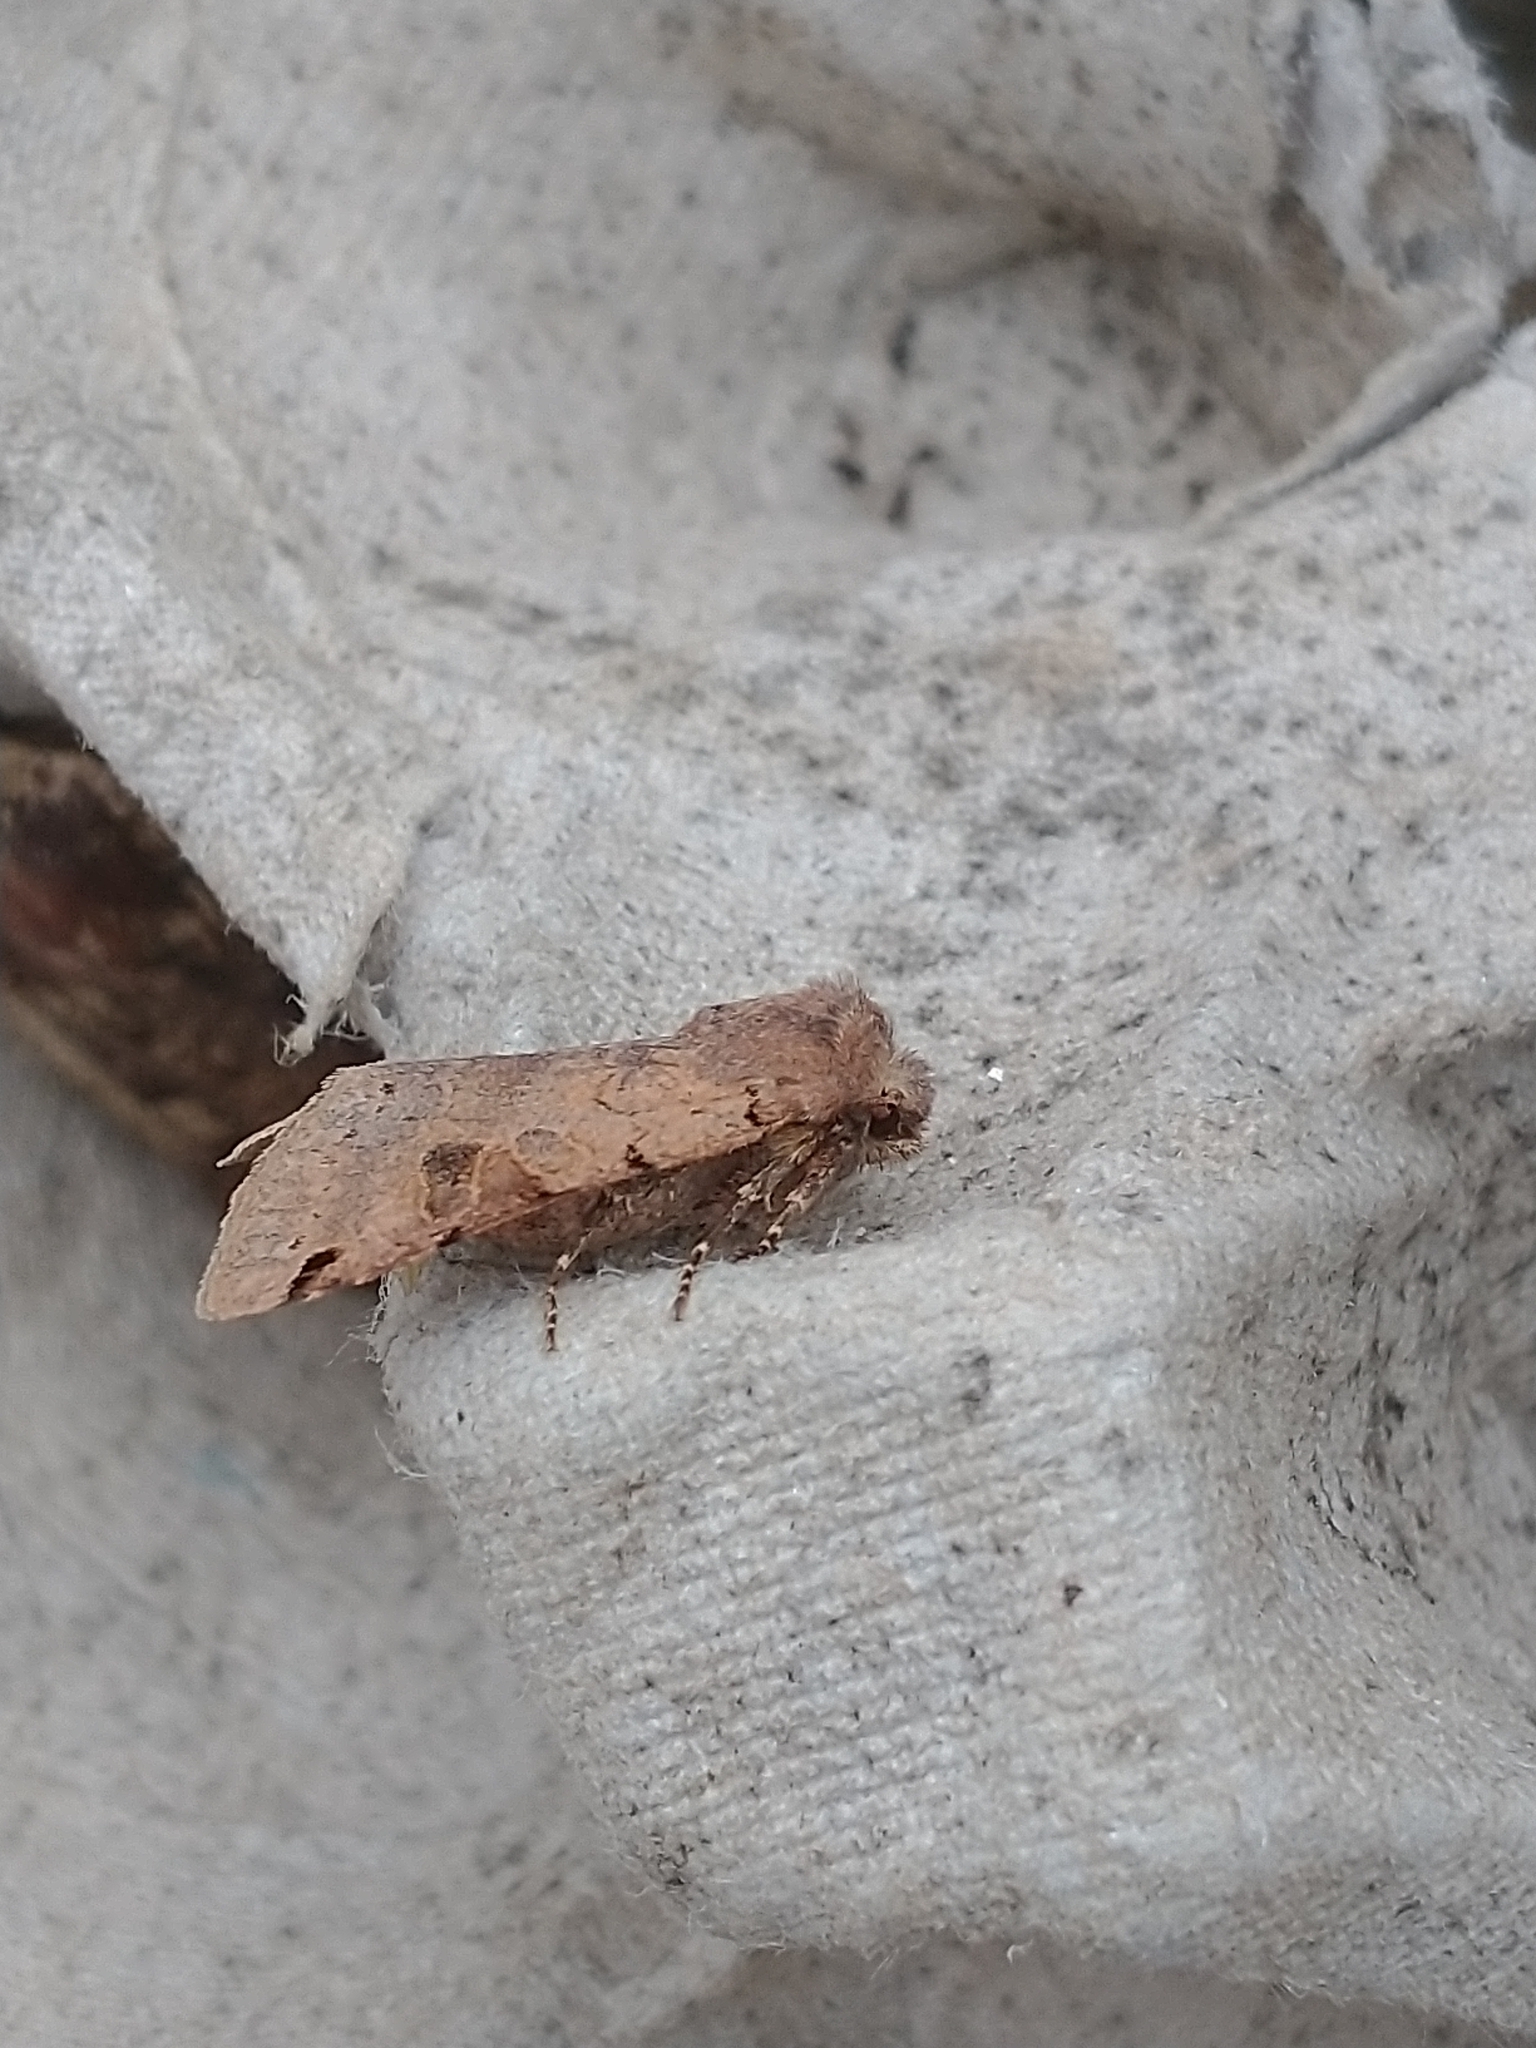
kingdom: Animalia
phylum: Arthropoda
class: Insecta
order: Lepidoptera
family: Noctuidae
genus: Agrochola
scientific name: Agrochola litura
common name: Brown-spot pinion
